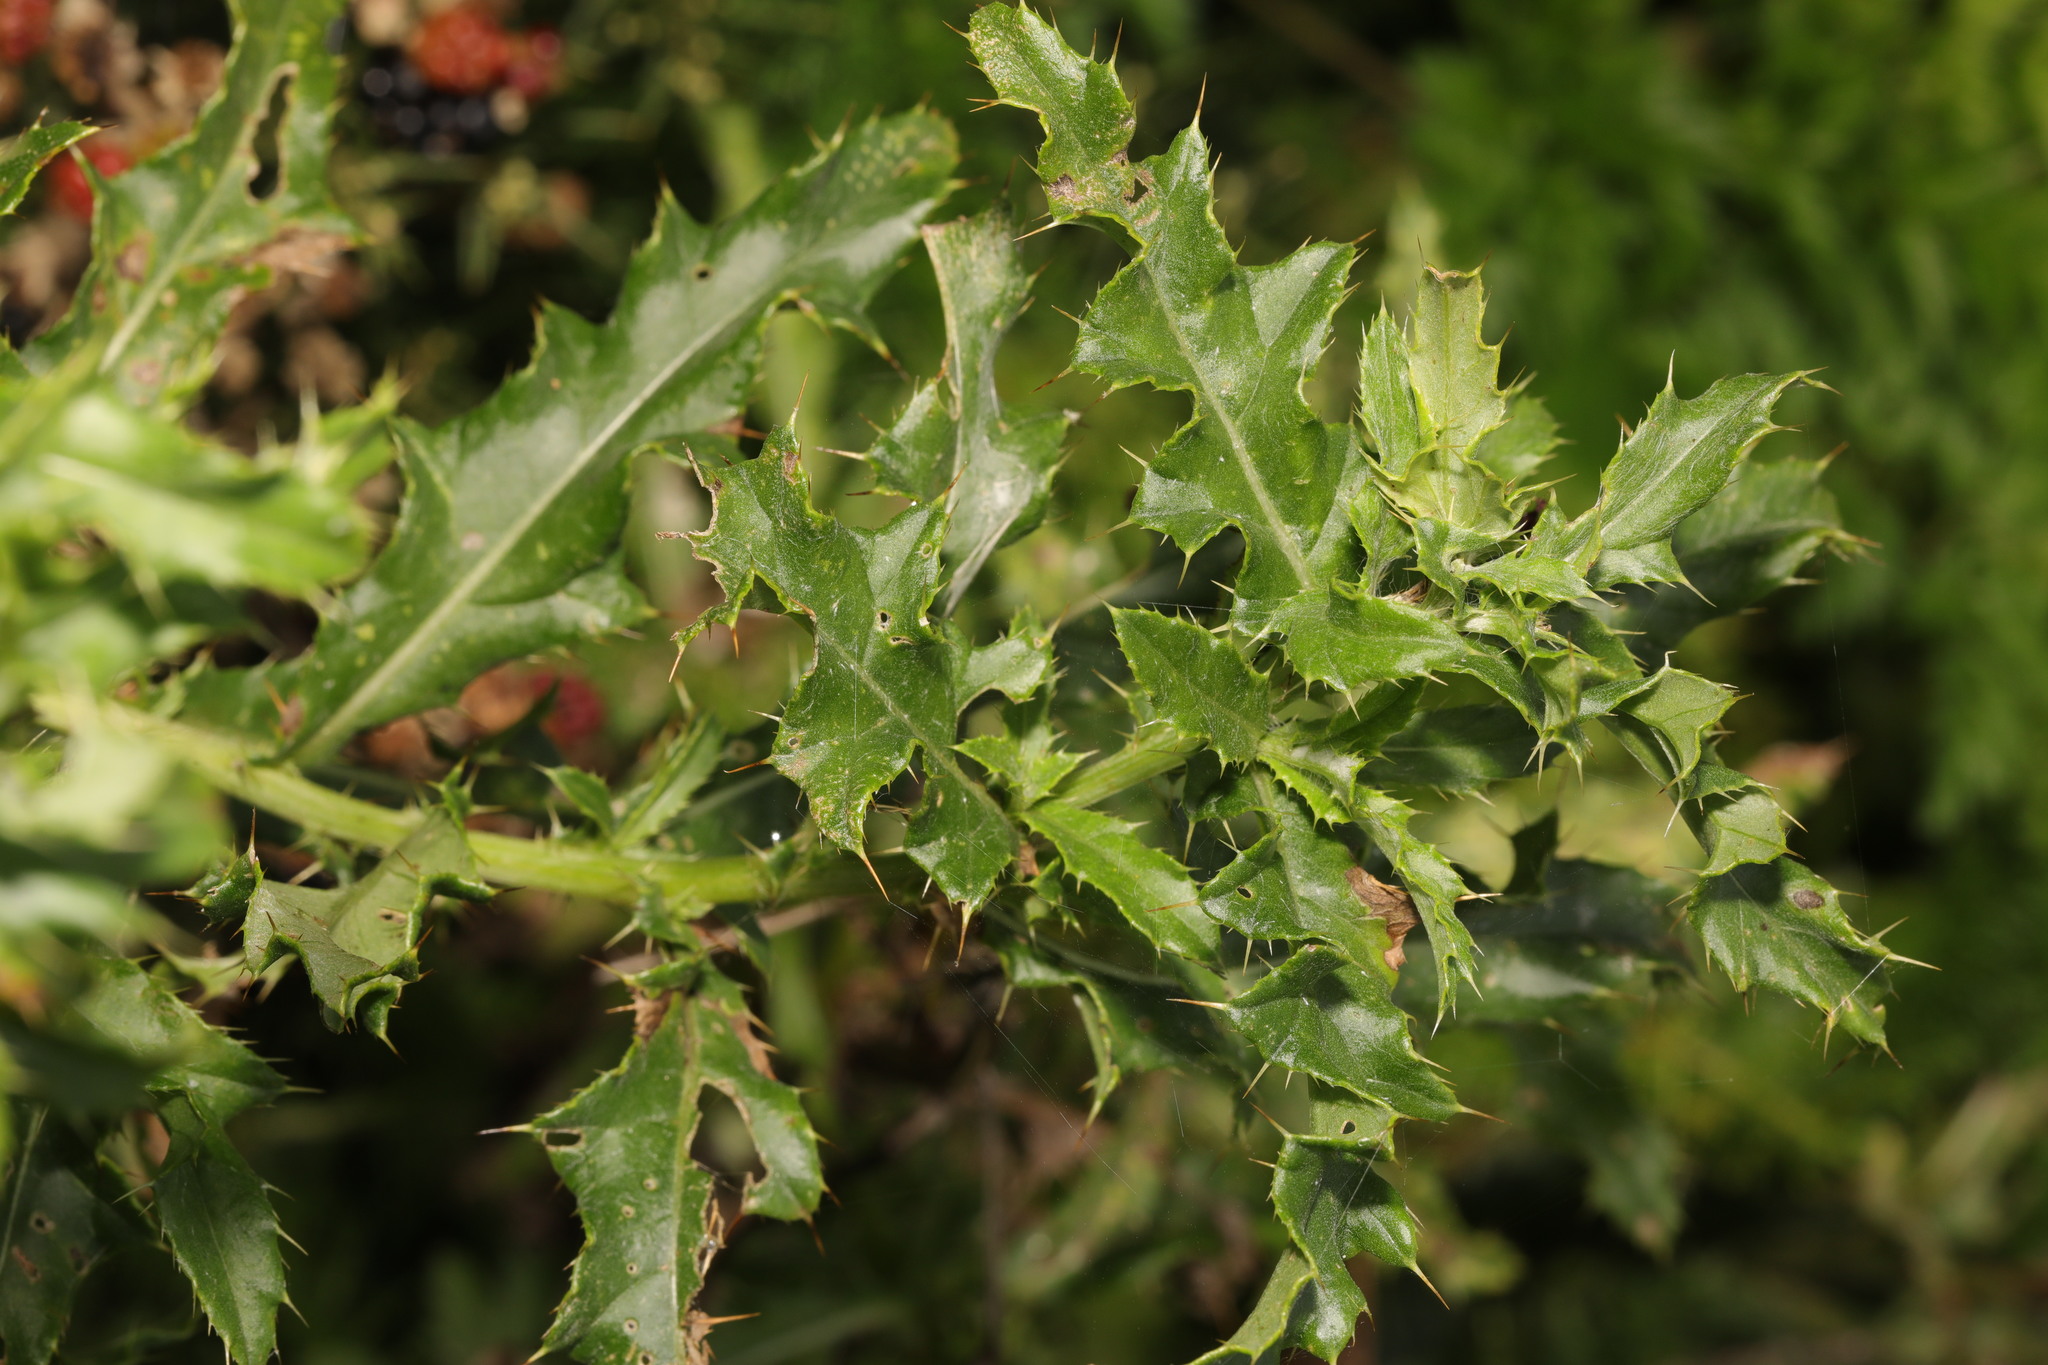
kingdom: Plantae
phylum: Tracheophyta
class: Magnoliopsida
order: Asterales
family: Asteraceae
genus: Cirsium
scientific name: Cirsium arvense
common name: Creeping thistle
